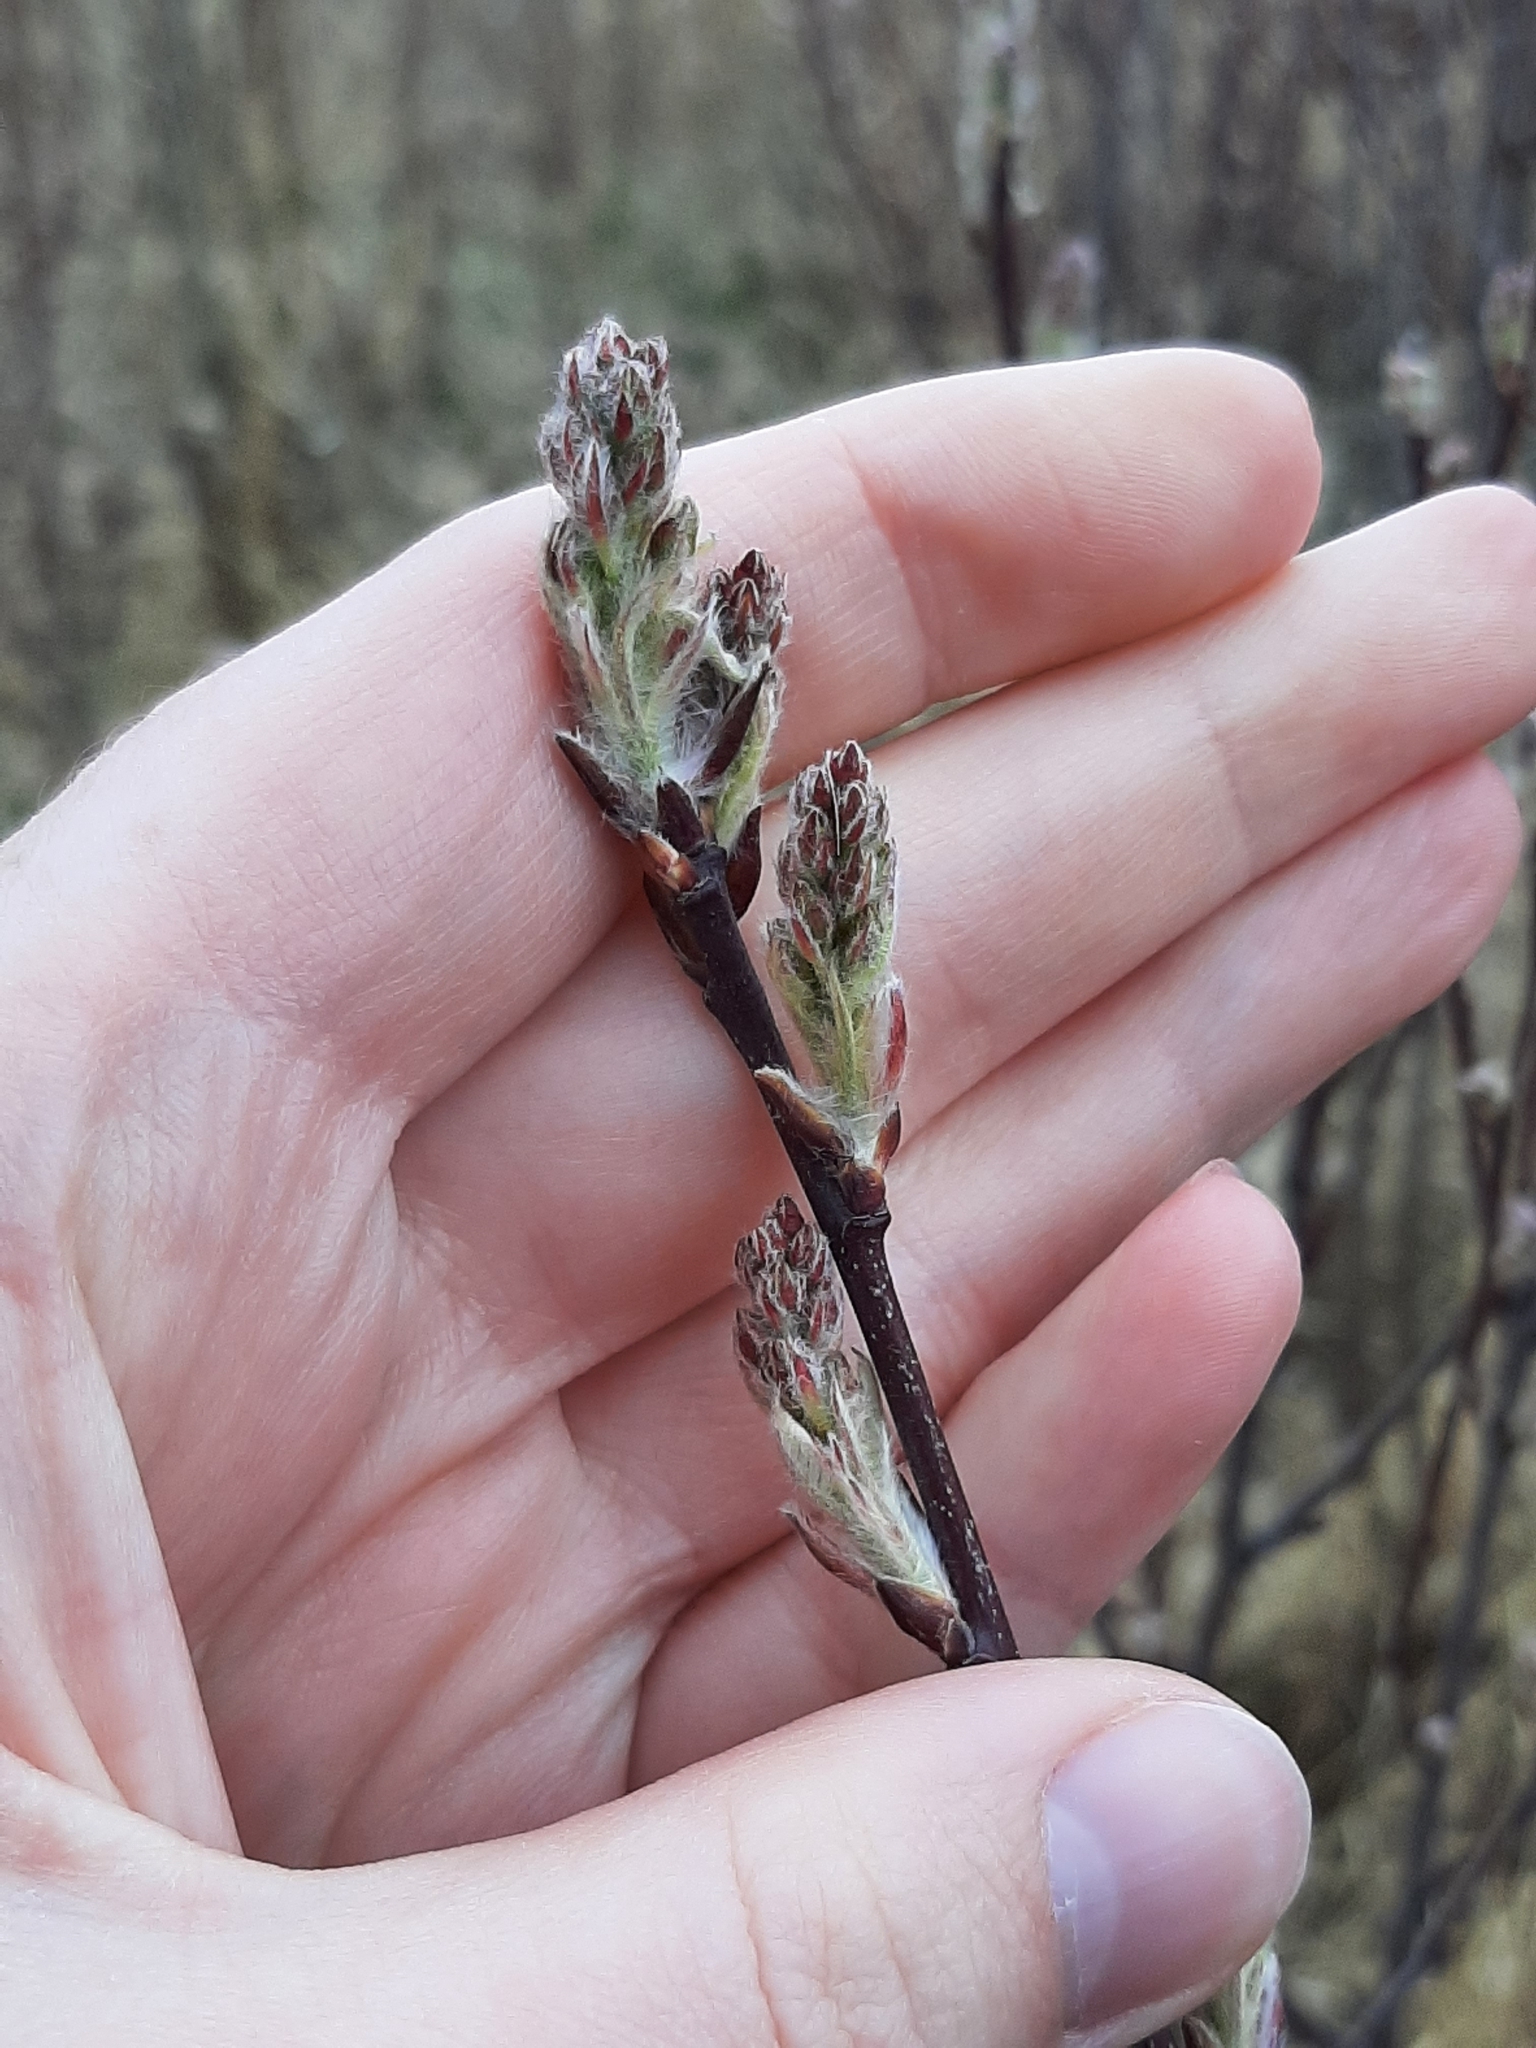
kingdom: Plantae
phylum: Tracheophyta
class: Magnoliopsida
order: Rosales
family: Rosaceae
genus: Amelanchier
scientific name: Amelanchier alnifolia
